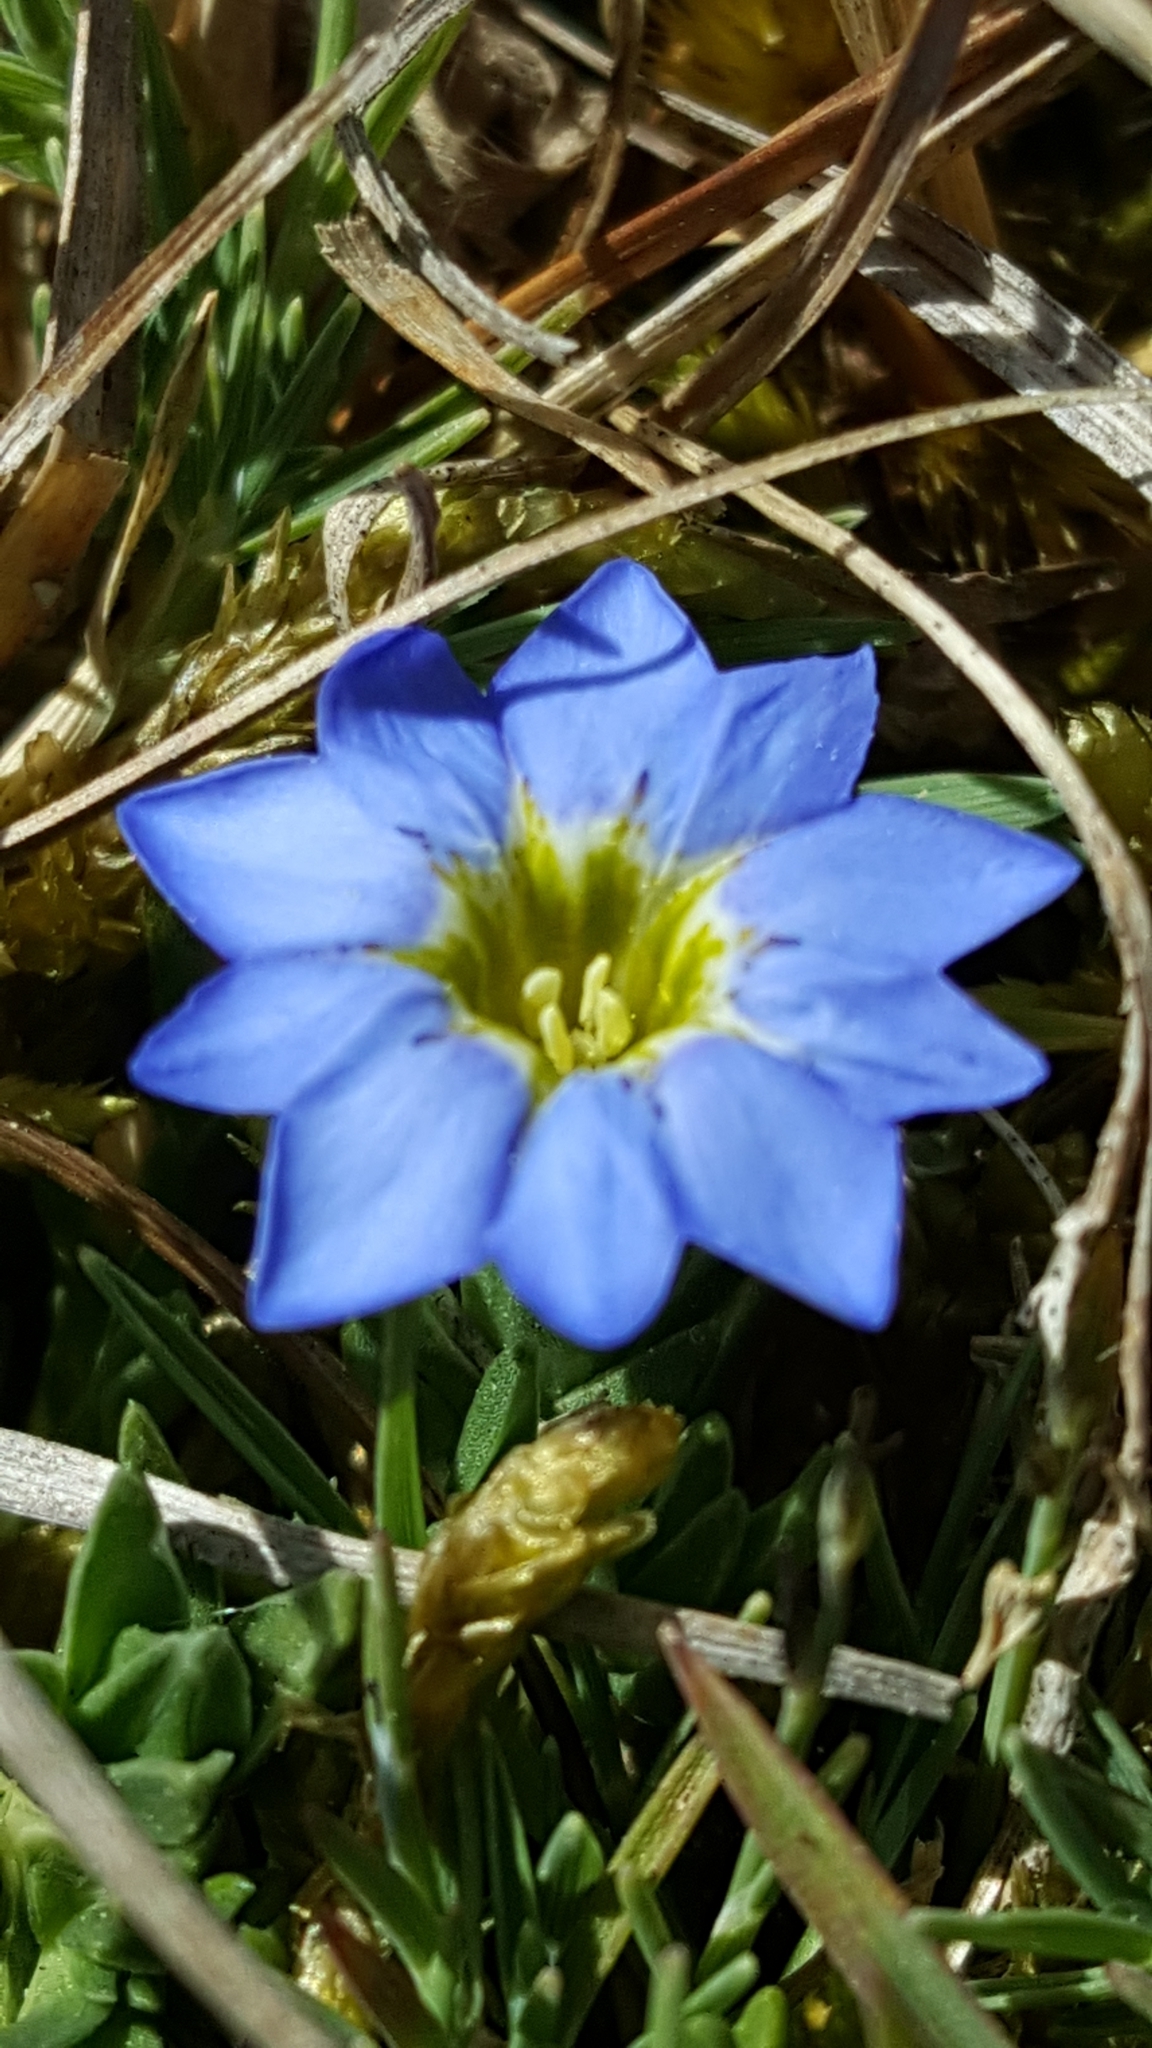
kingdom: Plantae
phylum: Tracheophyta
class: Magnoliopsida
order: Gentianales
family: Gentianaceae
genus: Gentiana
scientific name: Gentiana sedifolia
